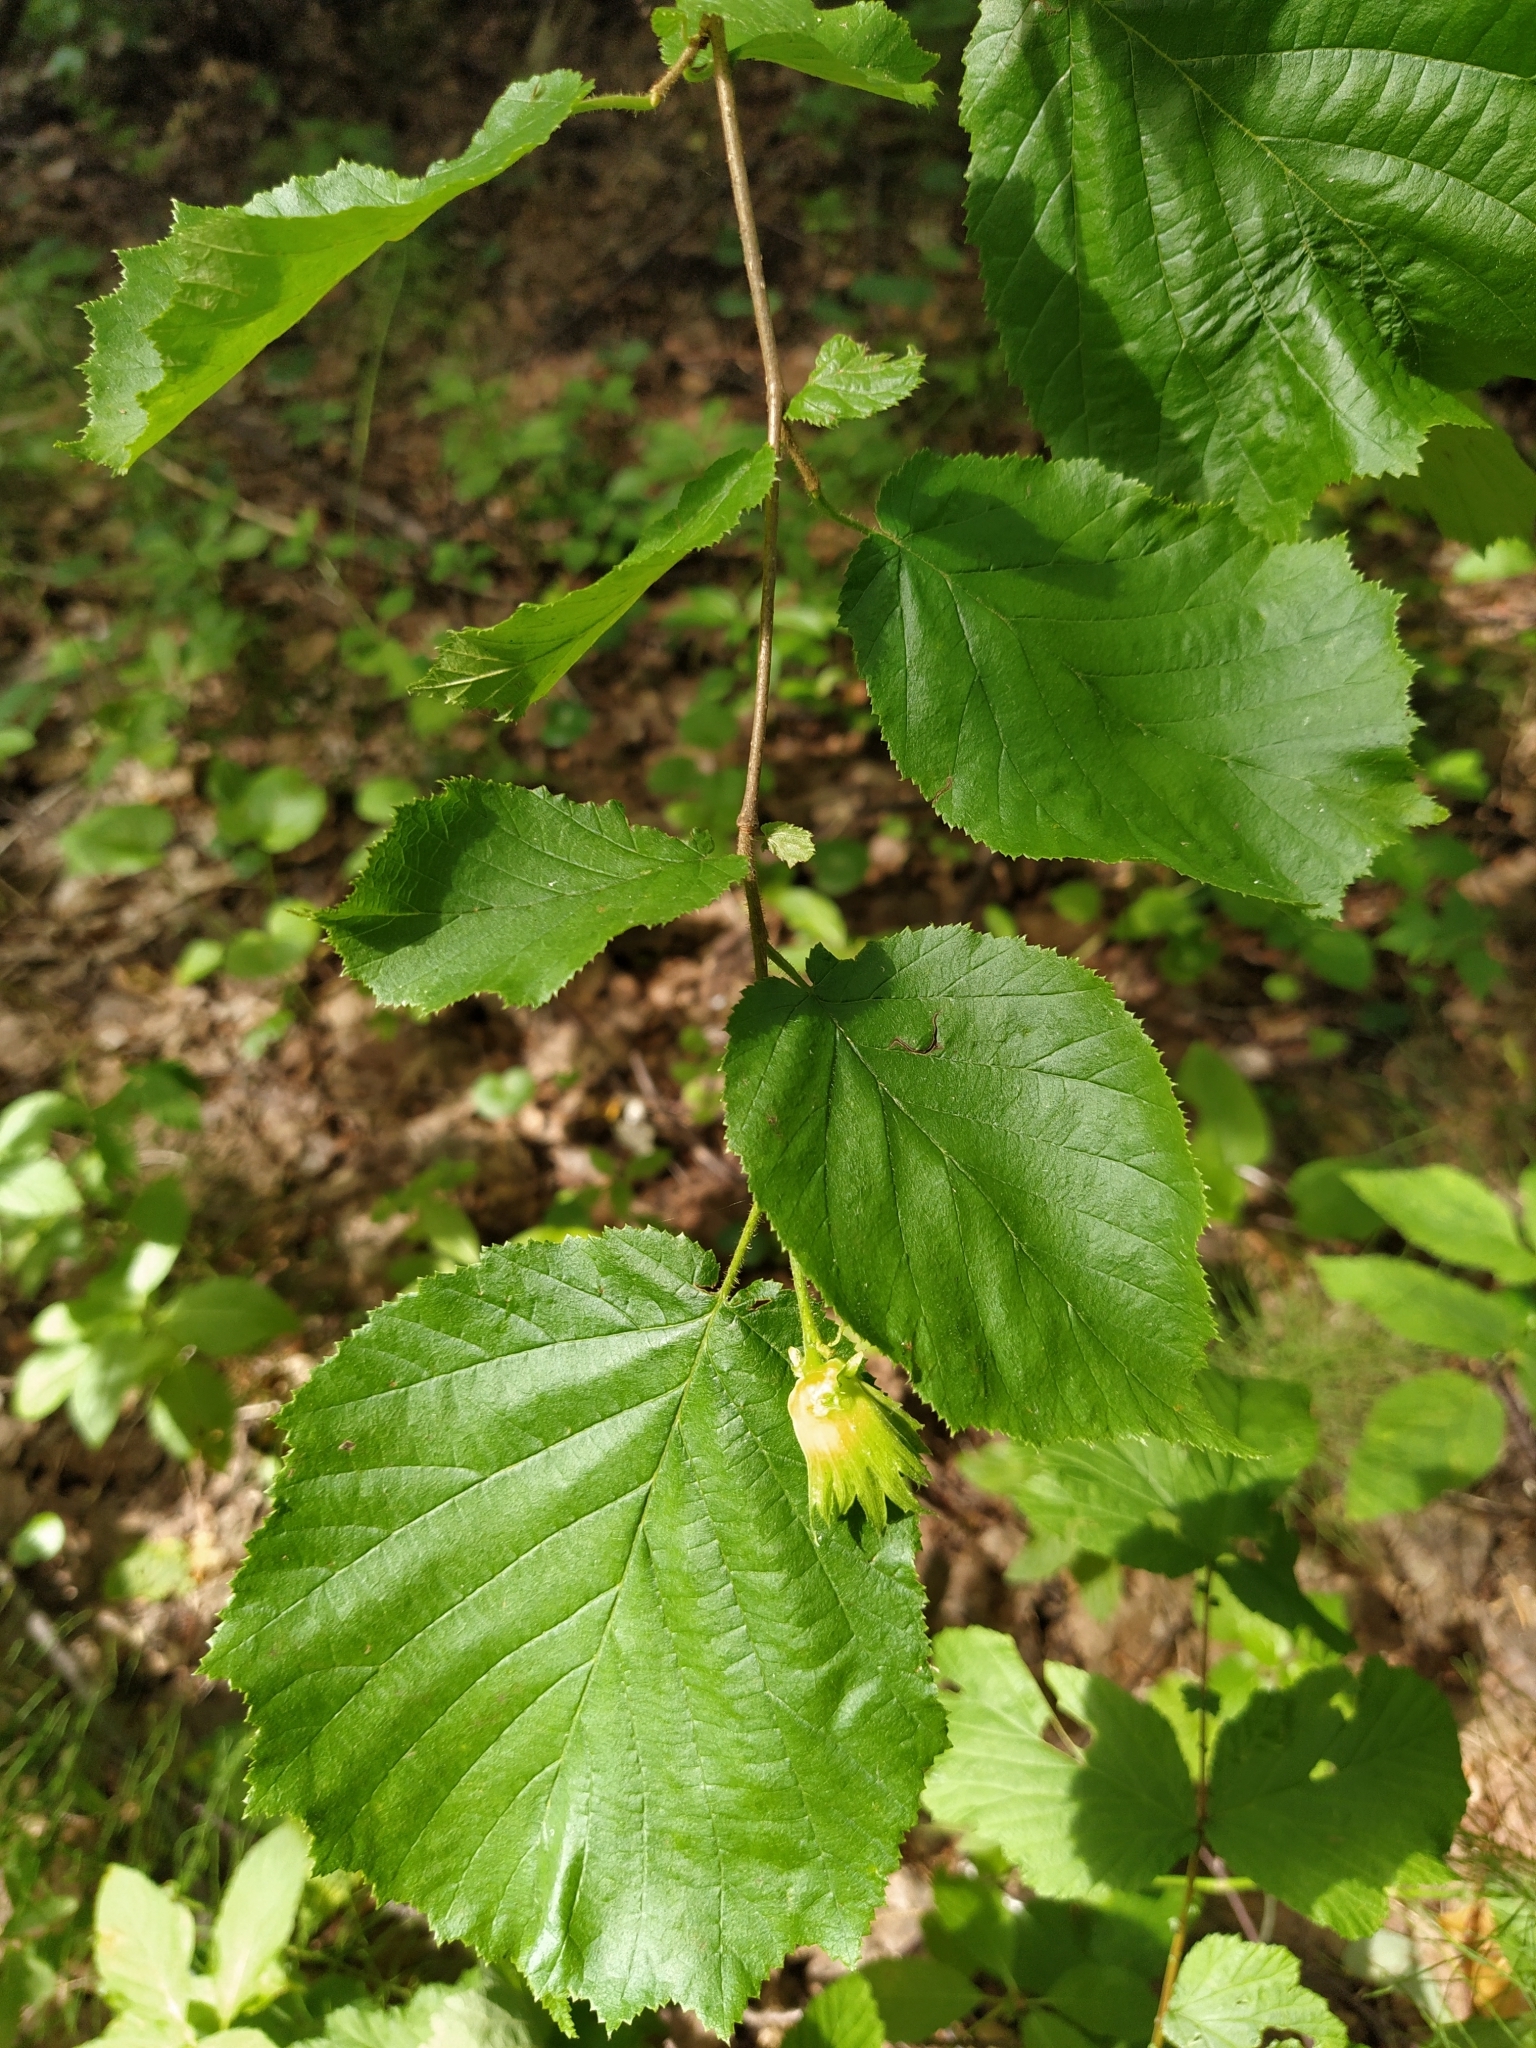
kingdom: Plantae
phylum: Tracheophyta
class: Magnoliopsida
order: Fagales
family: Betulaceae
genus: Corylus
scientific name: Corylus avellana
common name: European hazel
